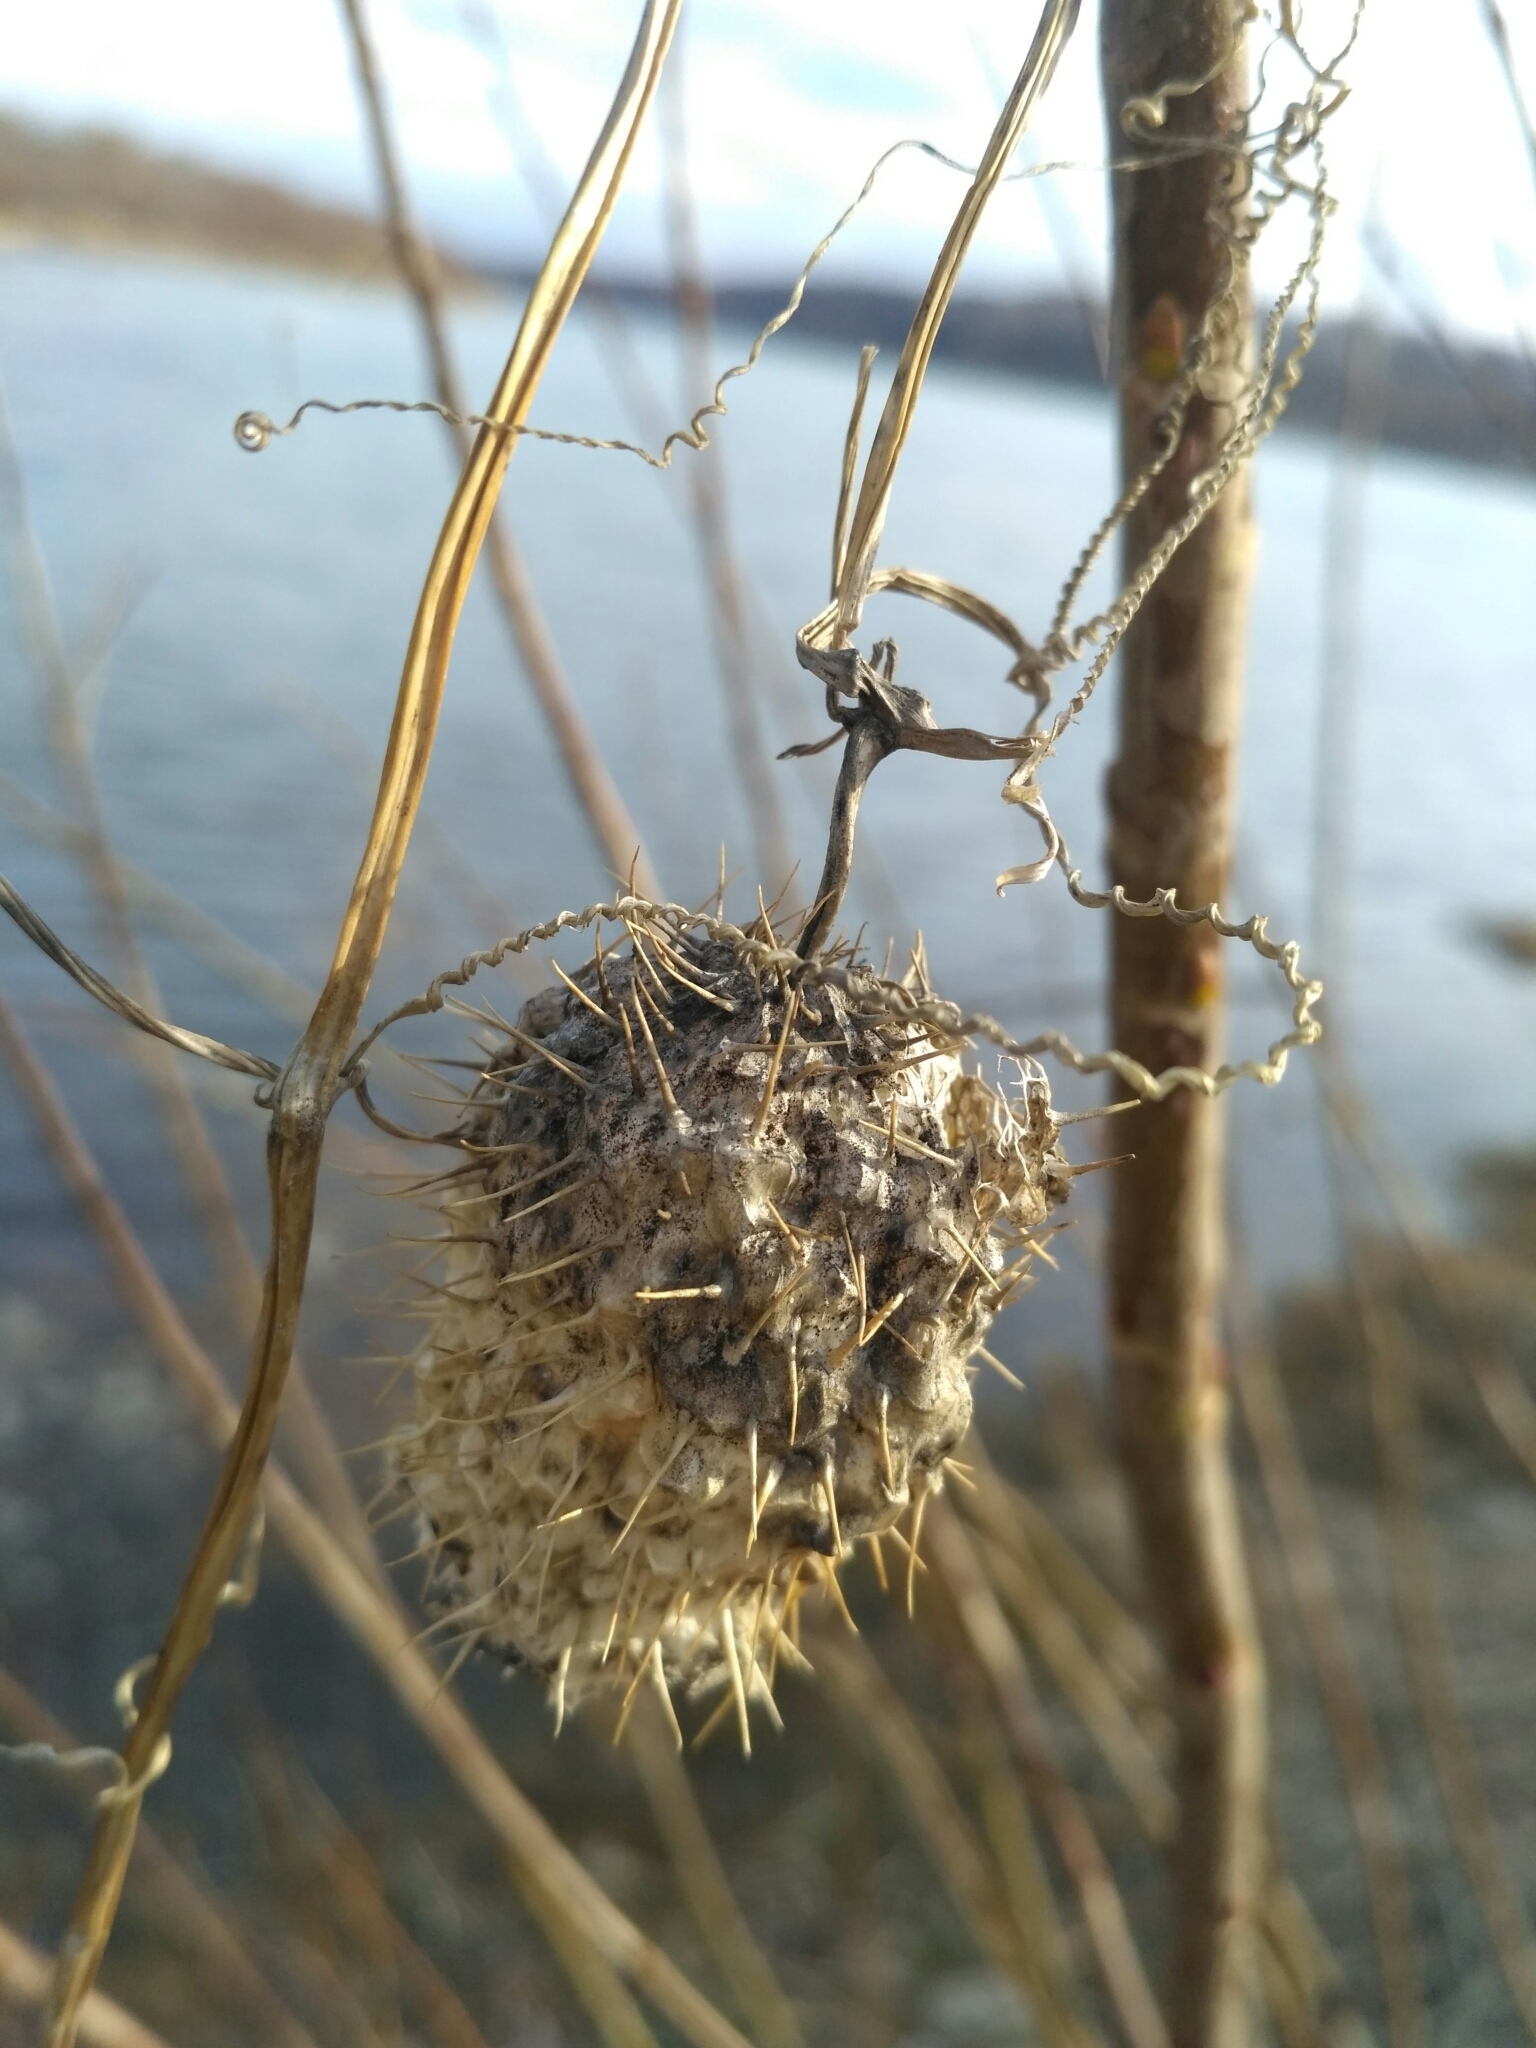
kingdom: Plantae
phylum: Tracheophyta
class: Magnoliopsida
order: Cucurbitales
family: Cucurbitaceae
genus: Echinocystis
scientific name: Echinocystis lobata
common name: Wild cucumber
